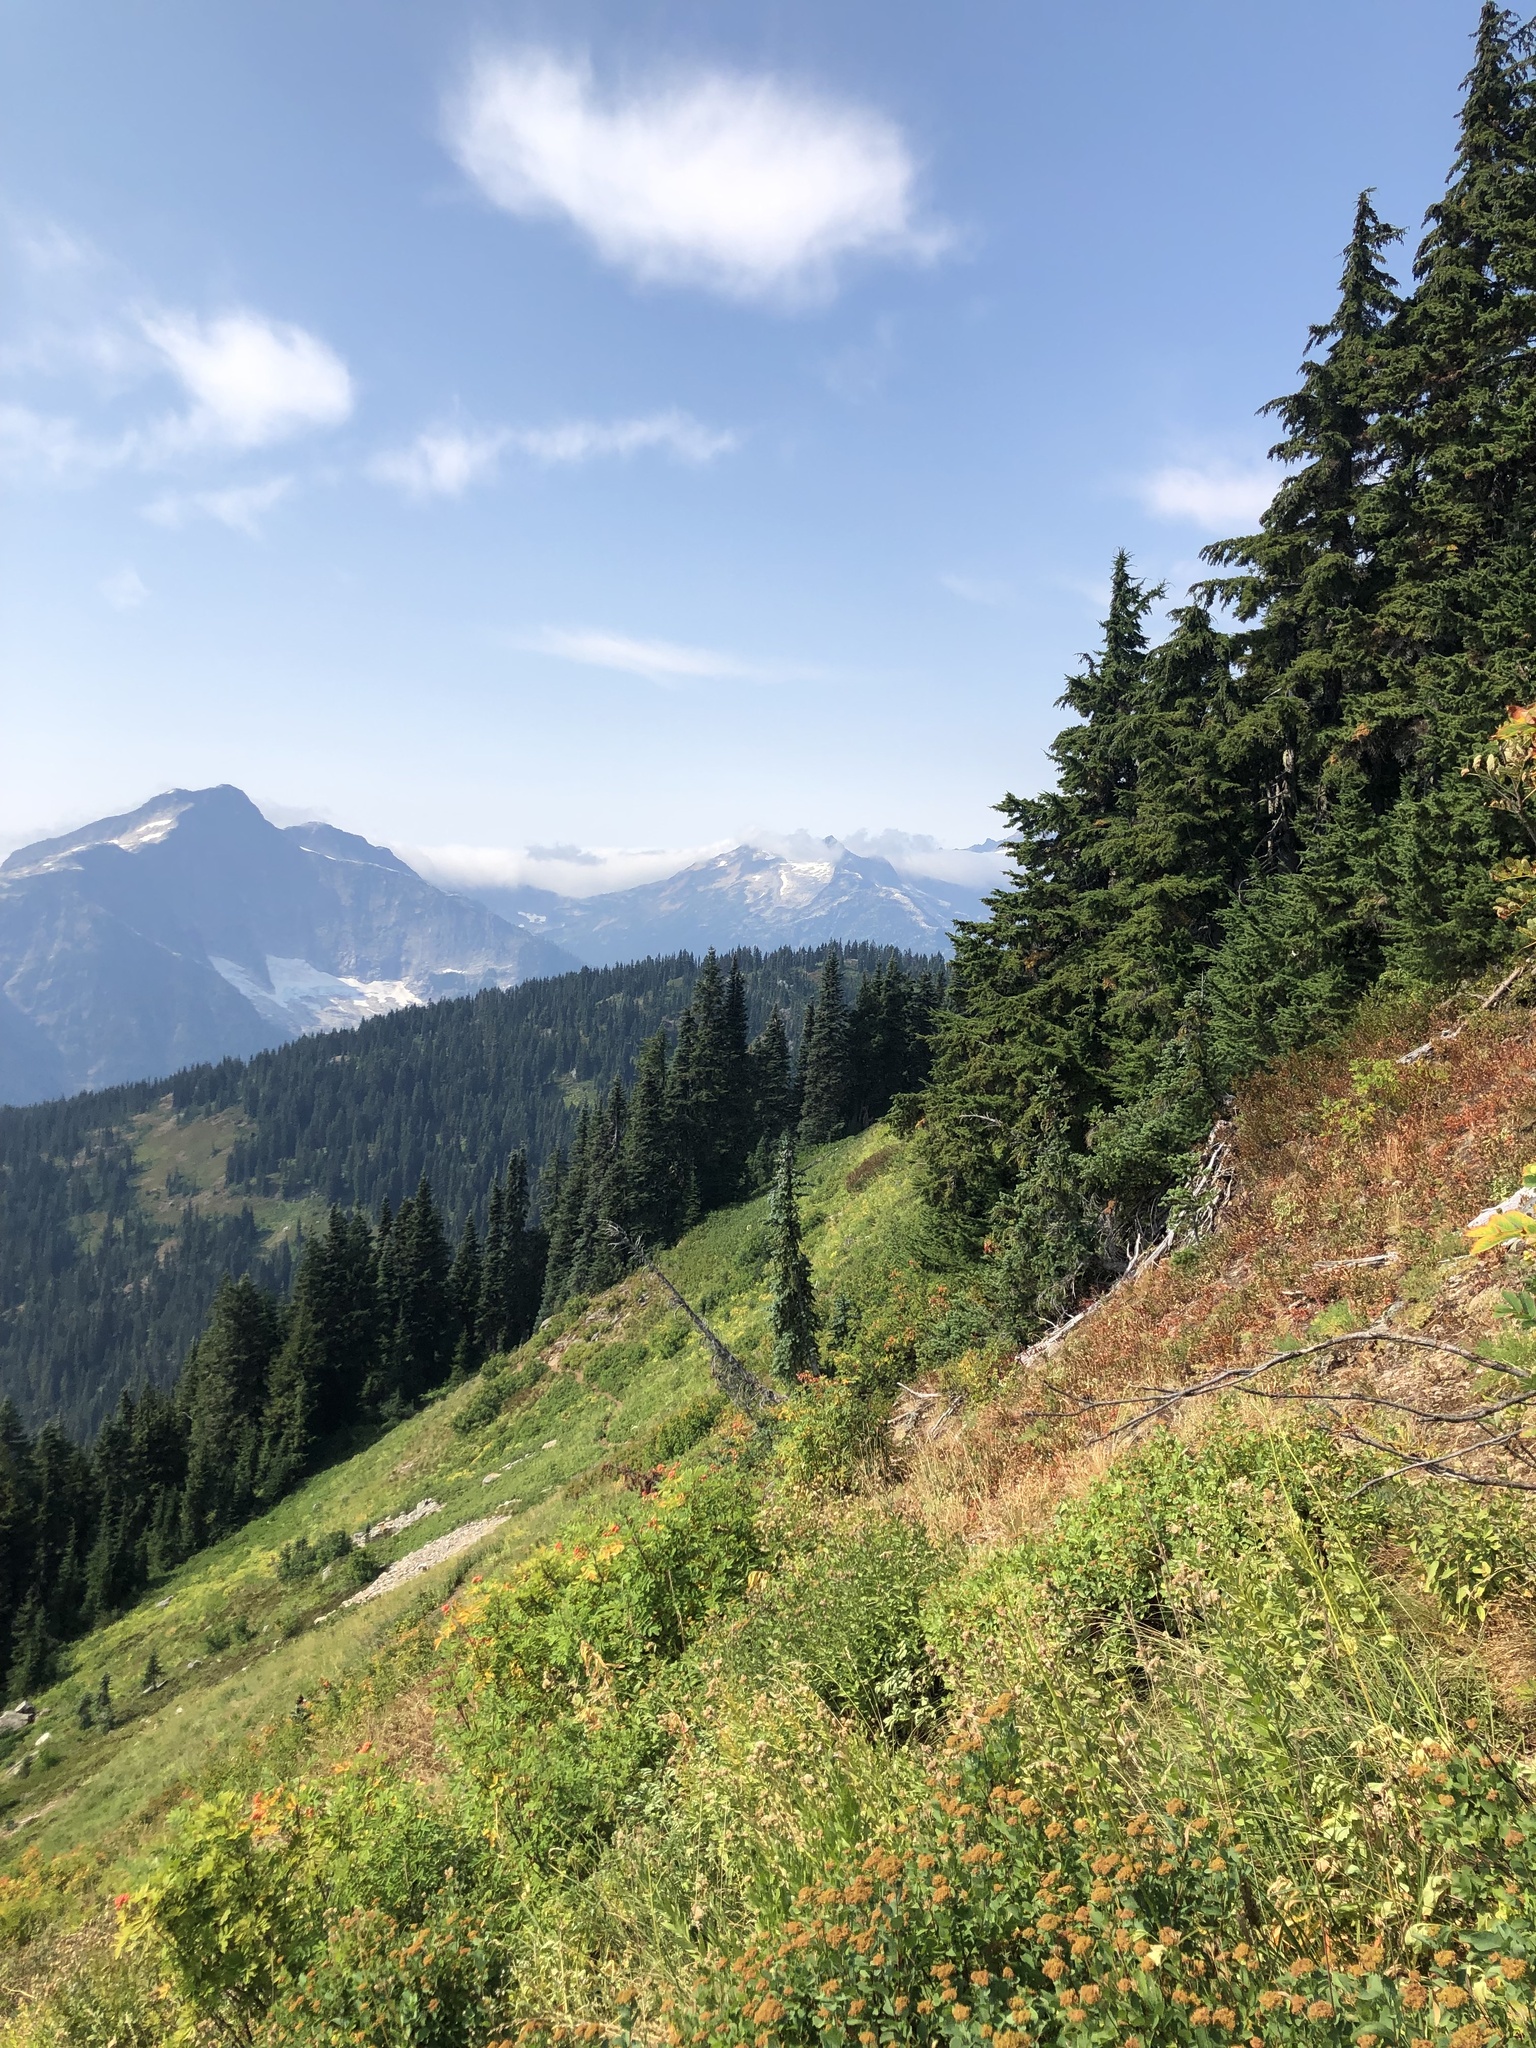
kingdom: Plantae
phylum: Tracheophyta
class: Pinopsida
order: Pinales
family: Pinaceae
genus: Tsuga
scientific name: Tsuga mertensiana
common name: Mountain hemlock
